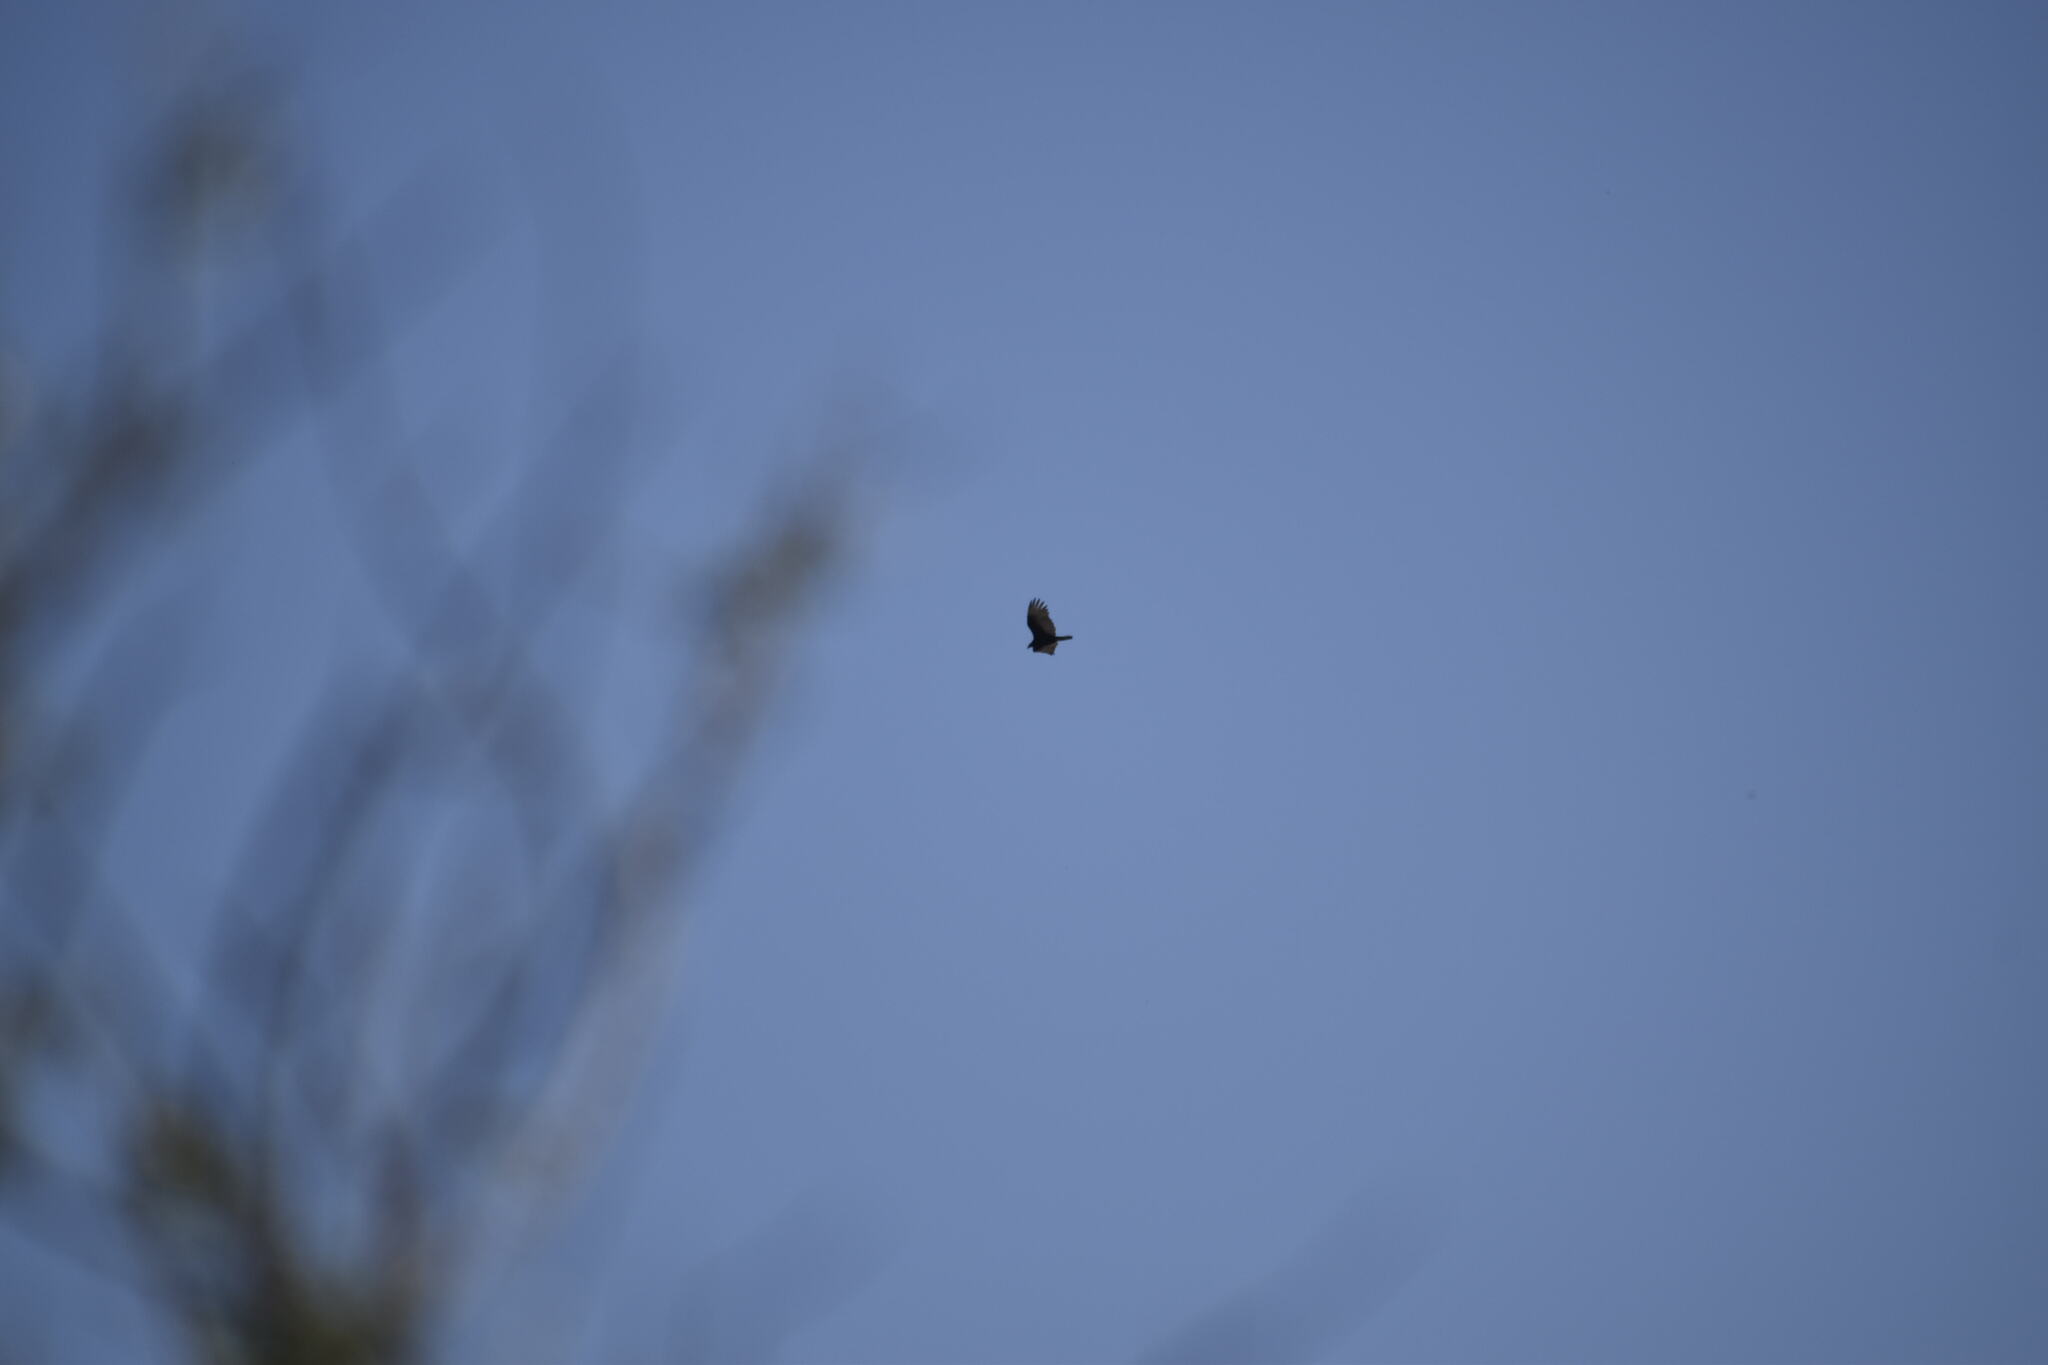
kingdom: Animalia
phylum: Chordata
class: Aves
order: Accipitriformes
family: Cathartidae
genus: Cathartes
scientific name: Cathartes aura
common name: Turkey vulture
